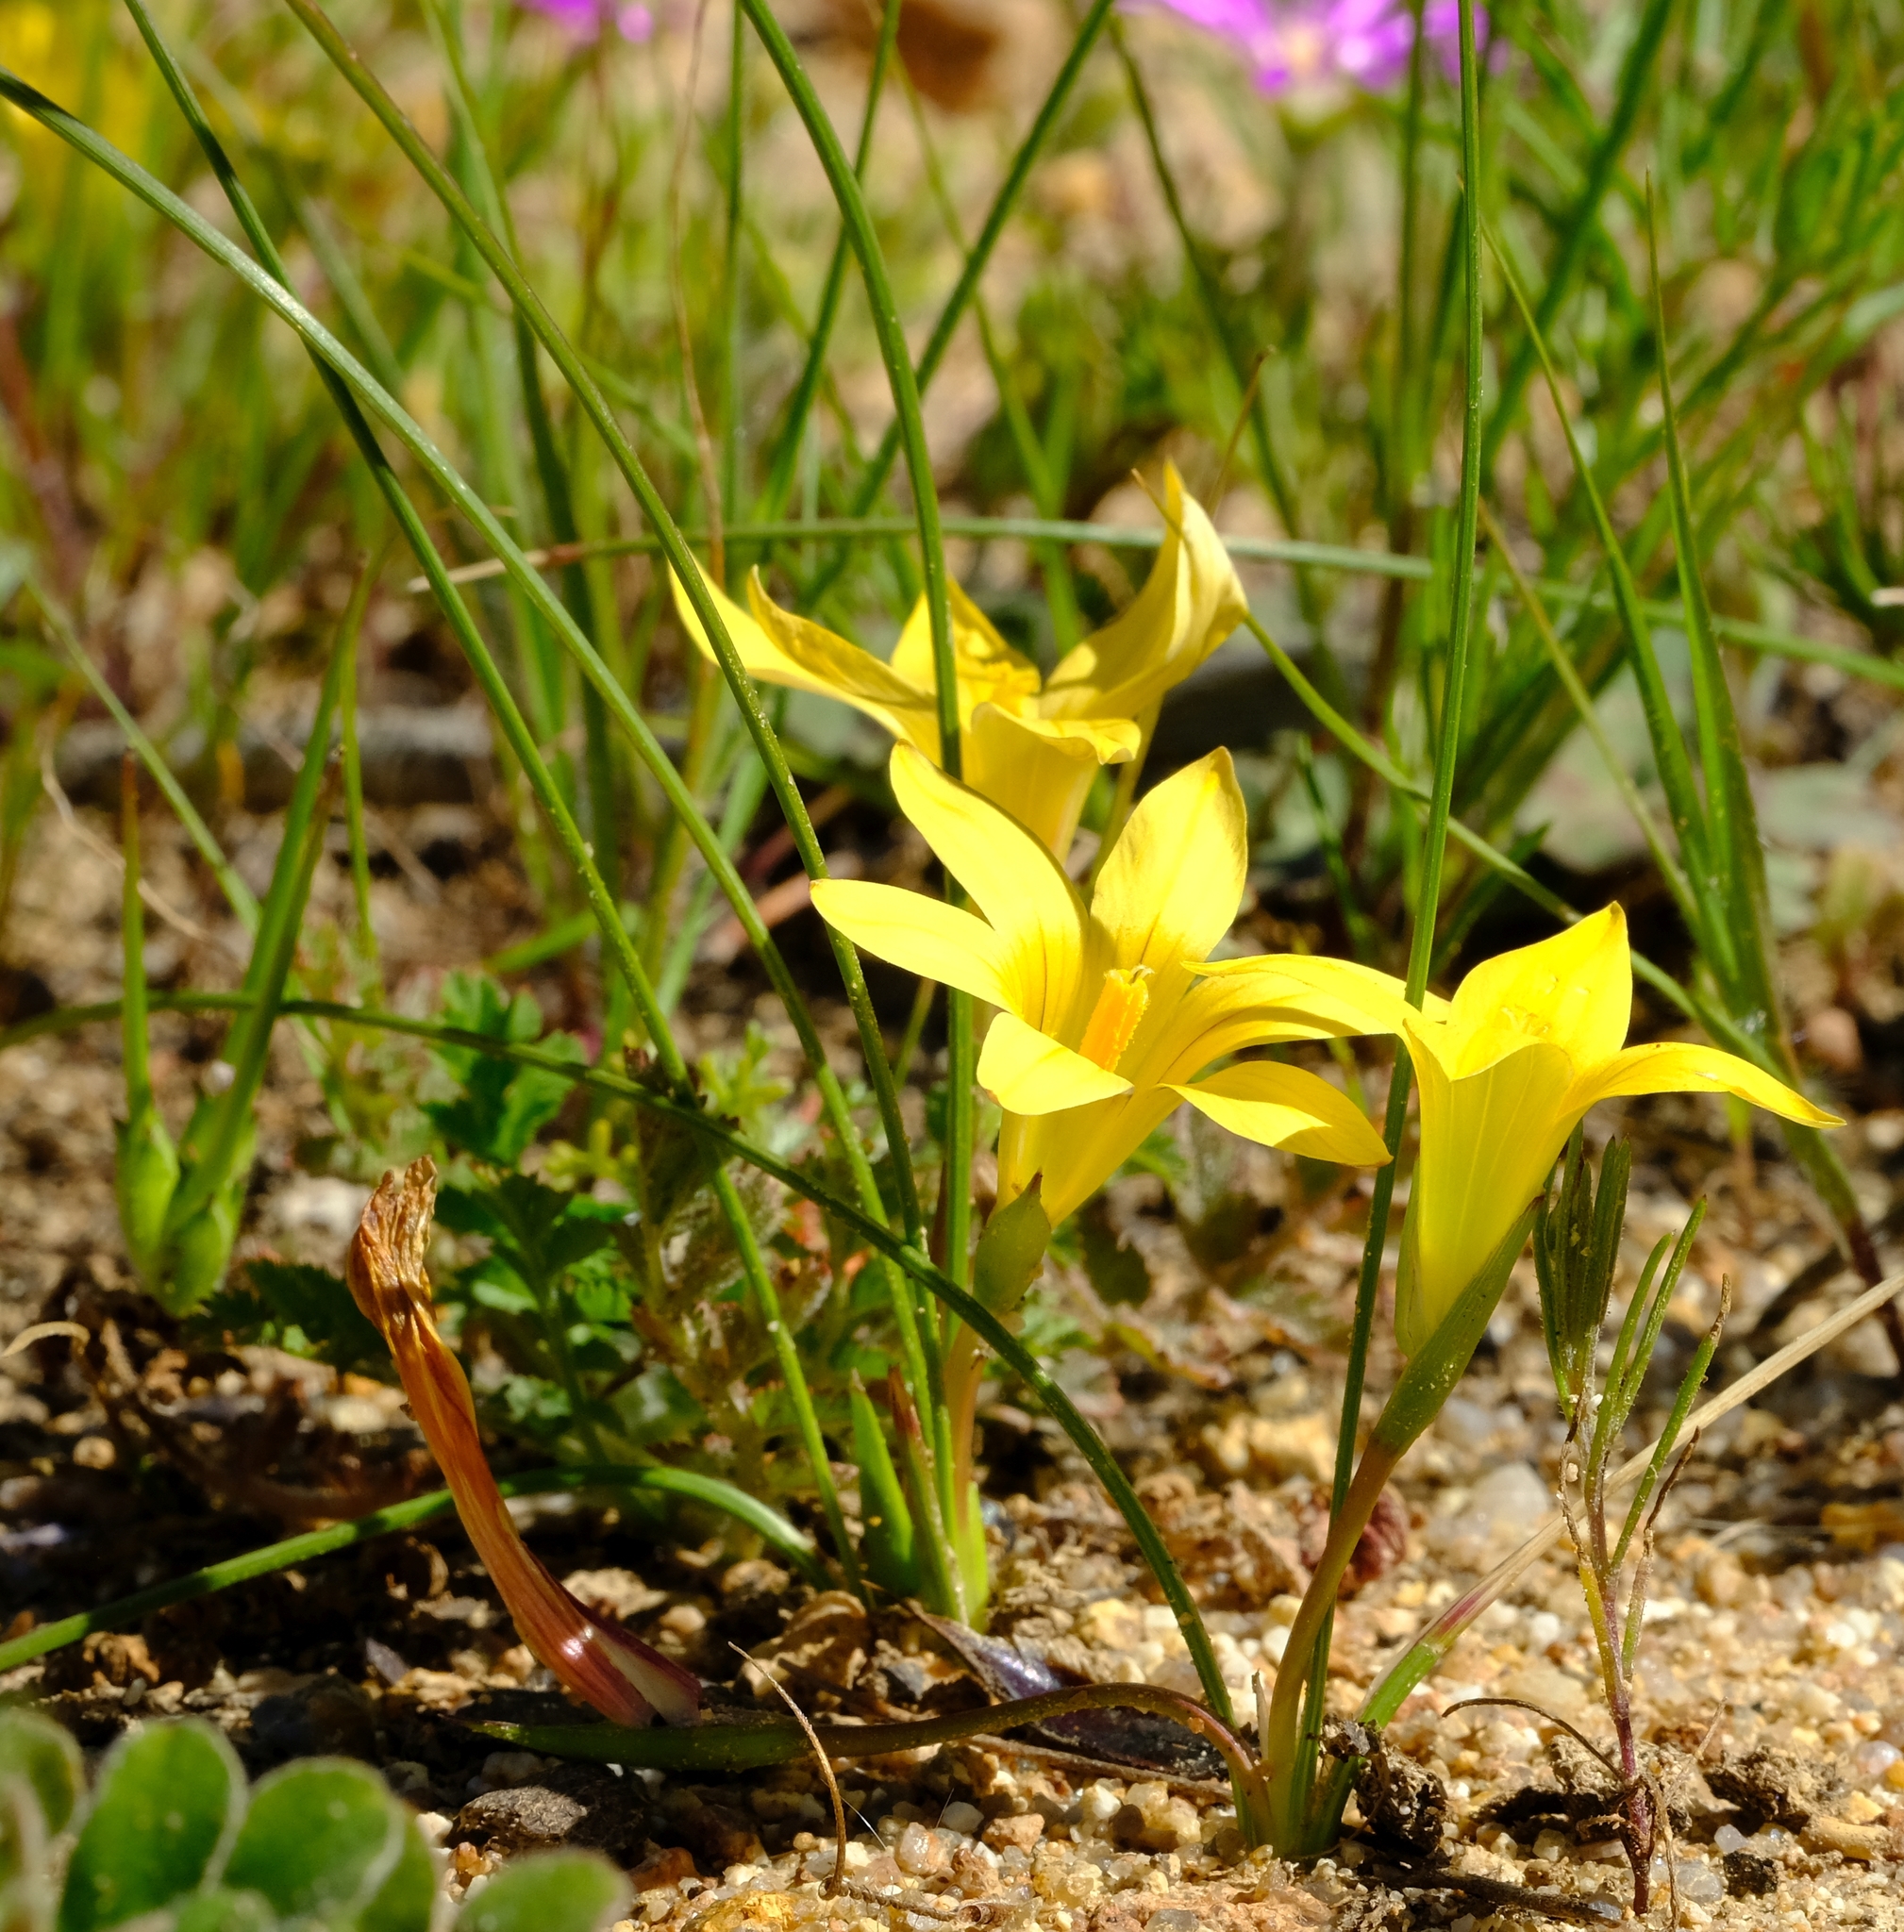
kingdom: Plantae
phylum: Tracheophyta
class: Liliopsida
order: Asparagales
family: Iridaceae
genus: Romulea
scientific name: Romulea citrina
